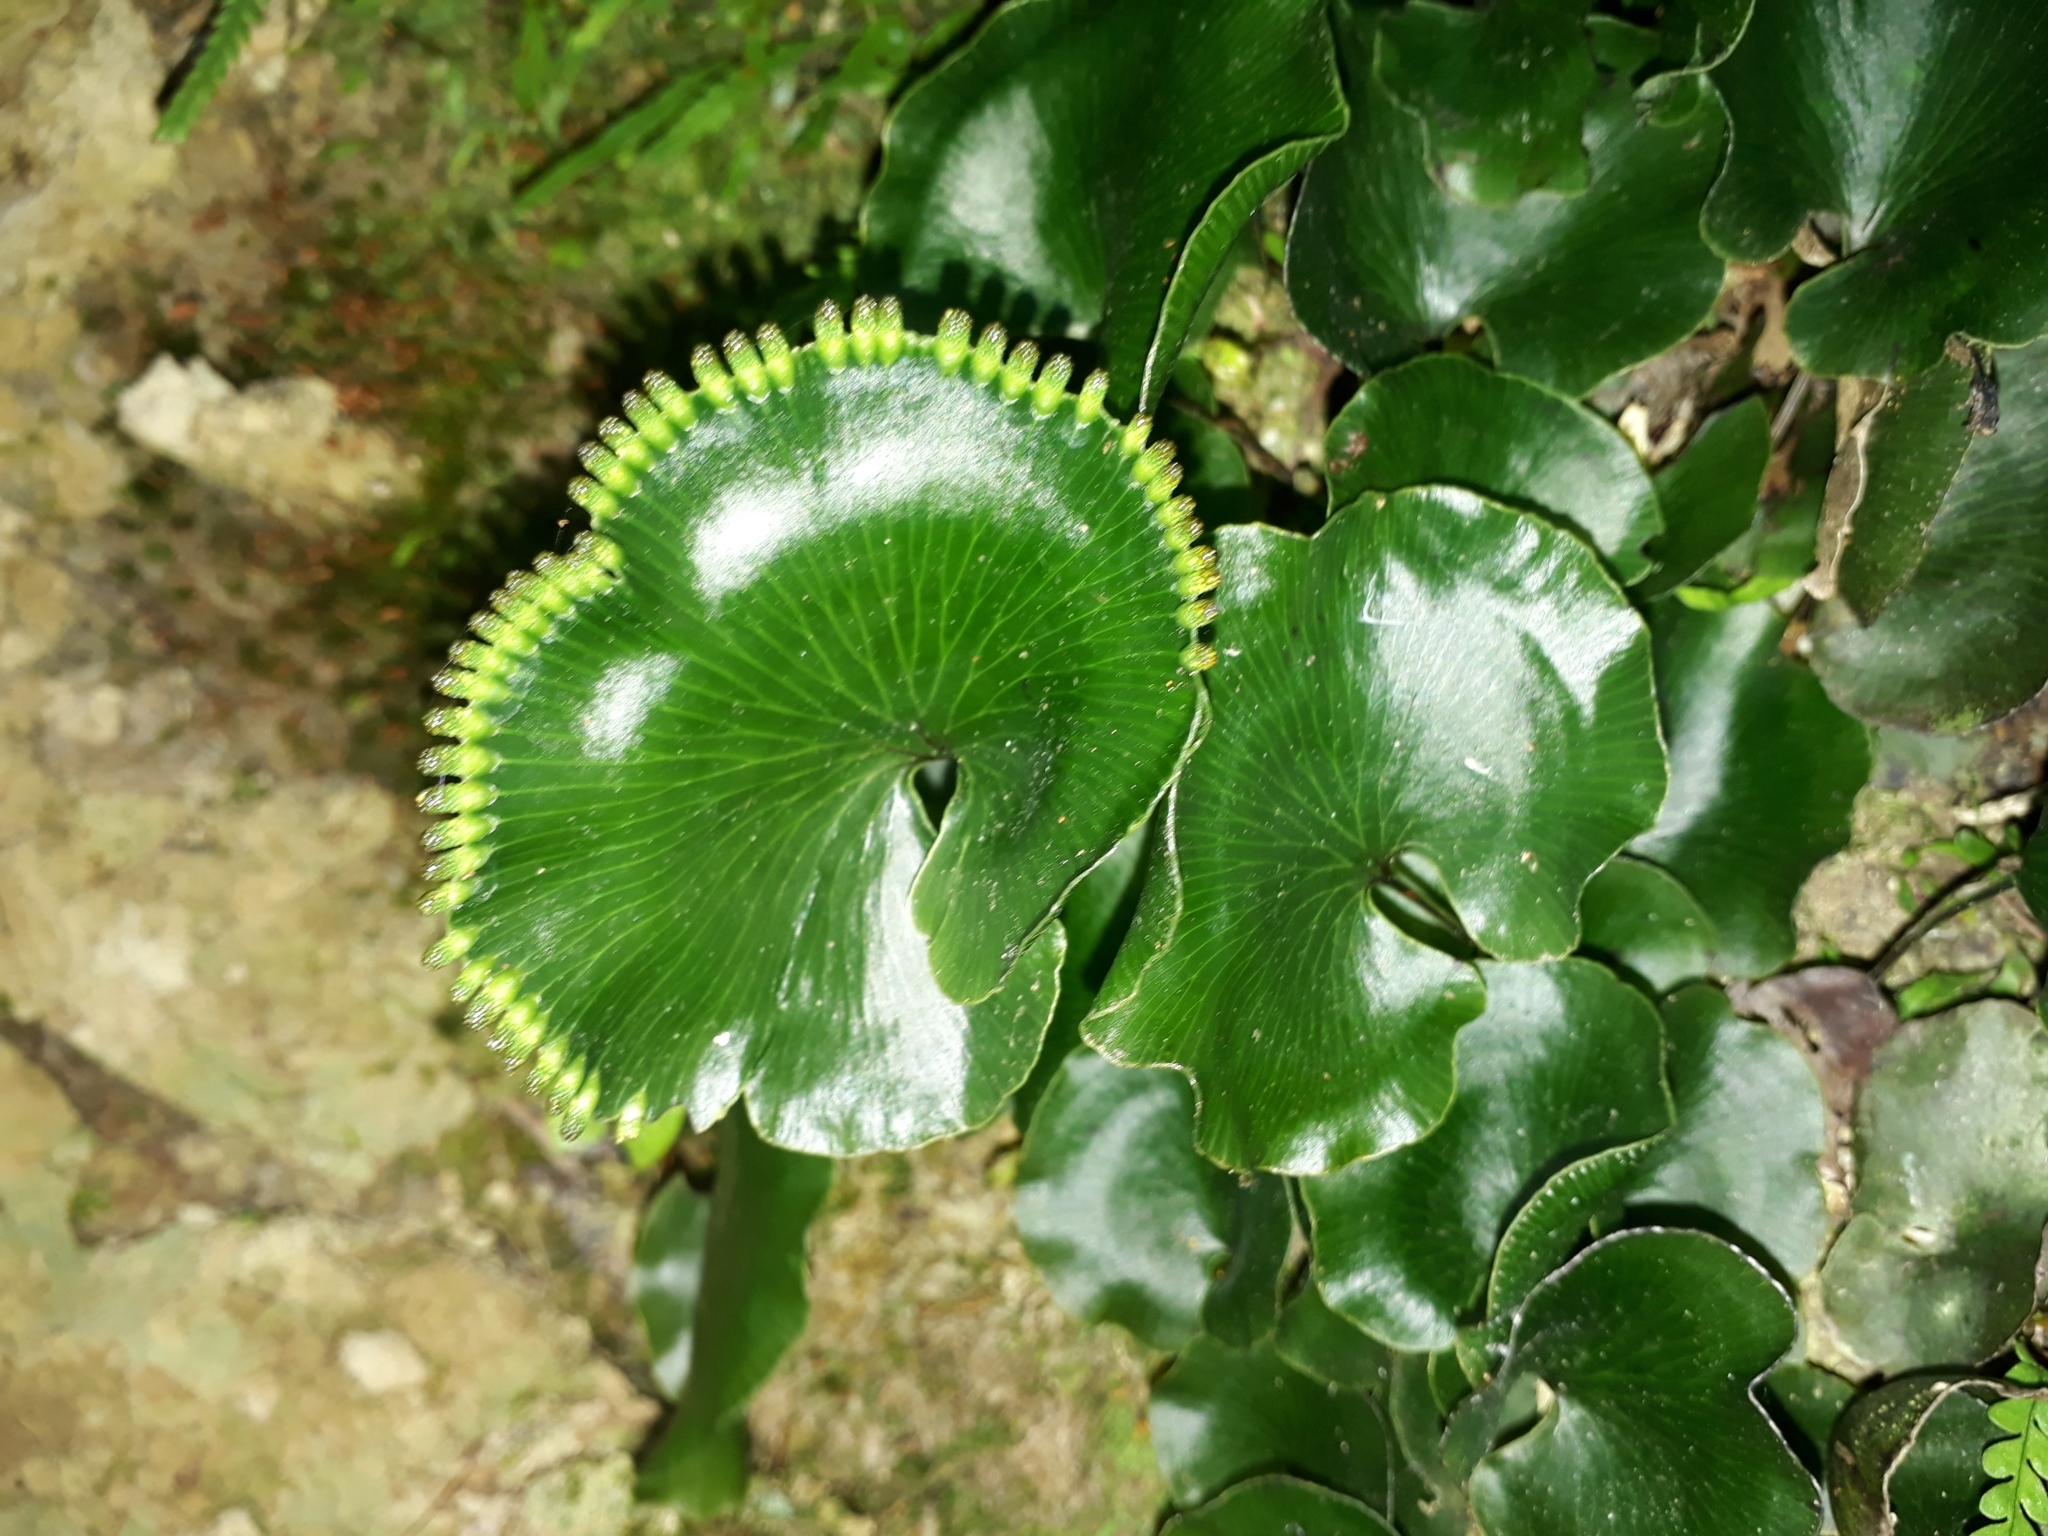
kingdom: Plantae
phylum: Tracheophyta
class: Polypodiopsida
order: Hymenophyllales
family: Hymenophyllaceae
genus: Hymenophyllum
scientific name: Hymenophyllum nephrophyllum
